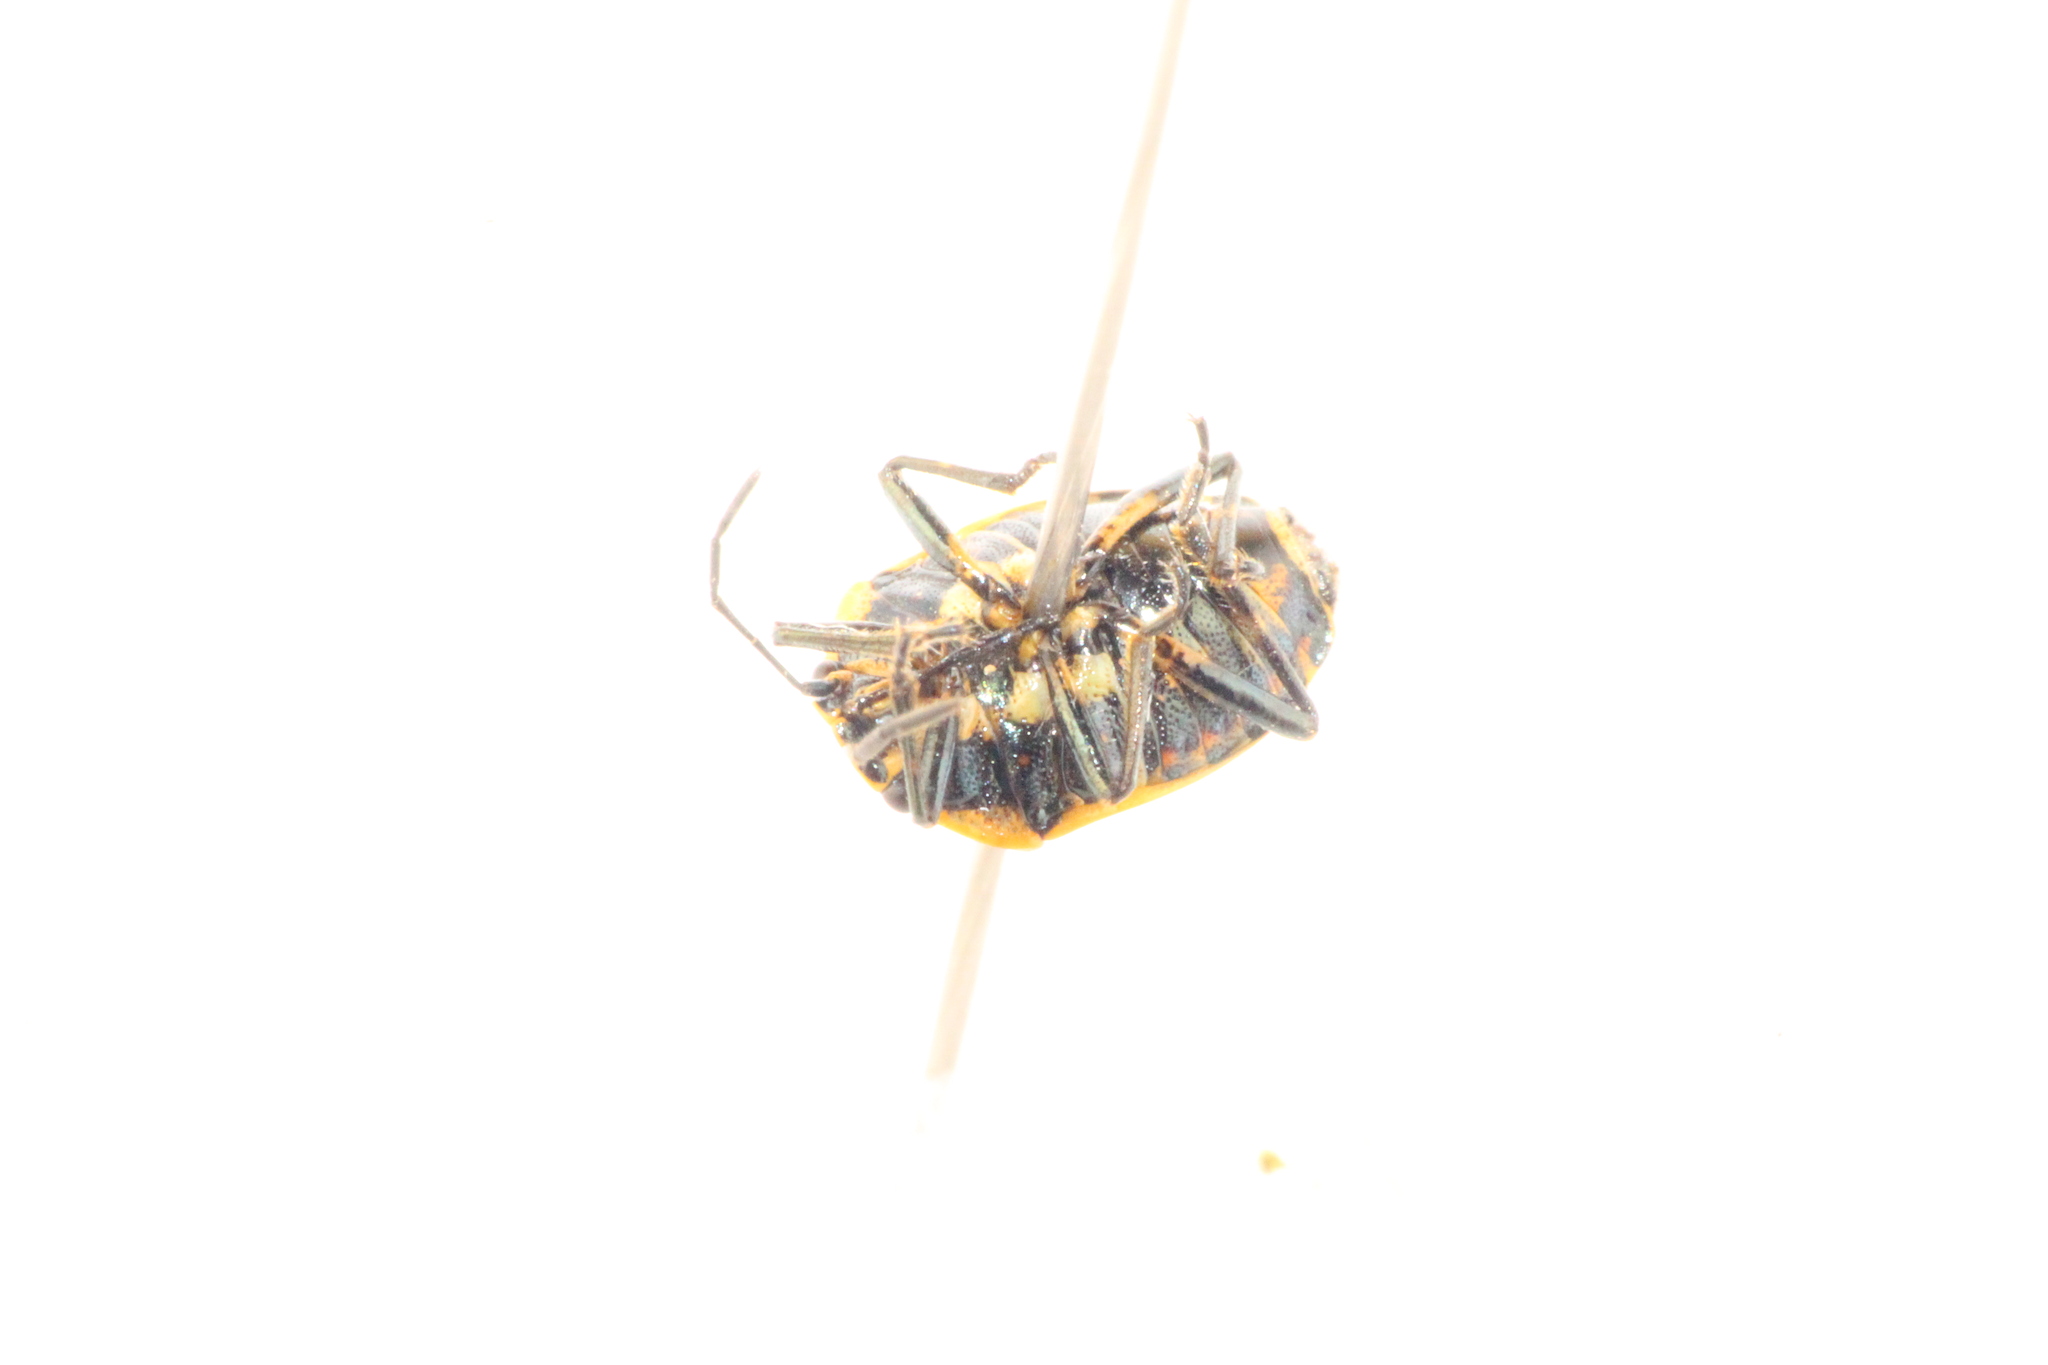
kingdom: Animalia
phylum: Arthropoda
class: Insecta
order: Hemiptera
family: Pentatomidae
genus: Eurydema
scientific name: Eurydema oleracea
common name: Cabbage bug
